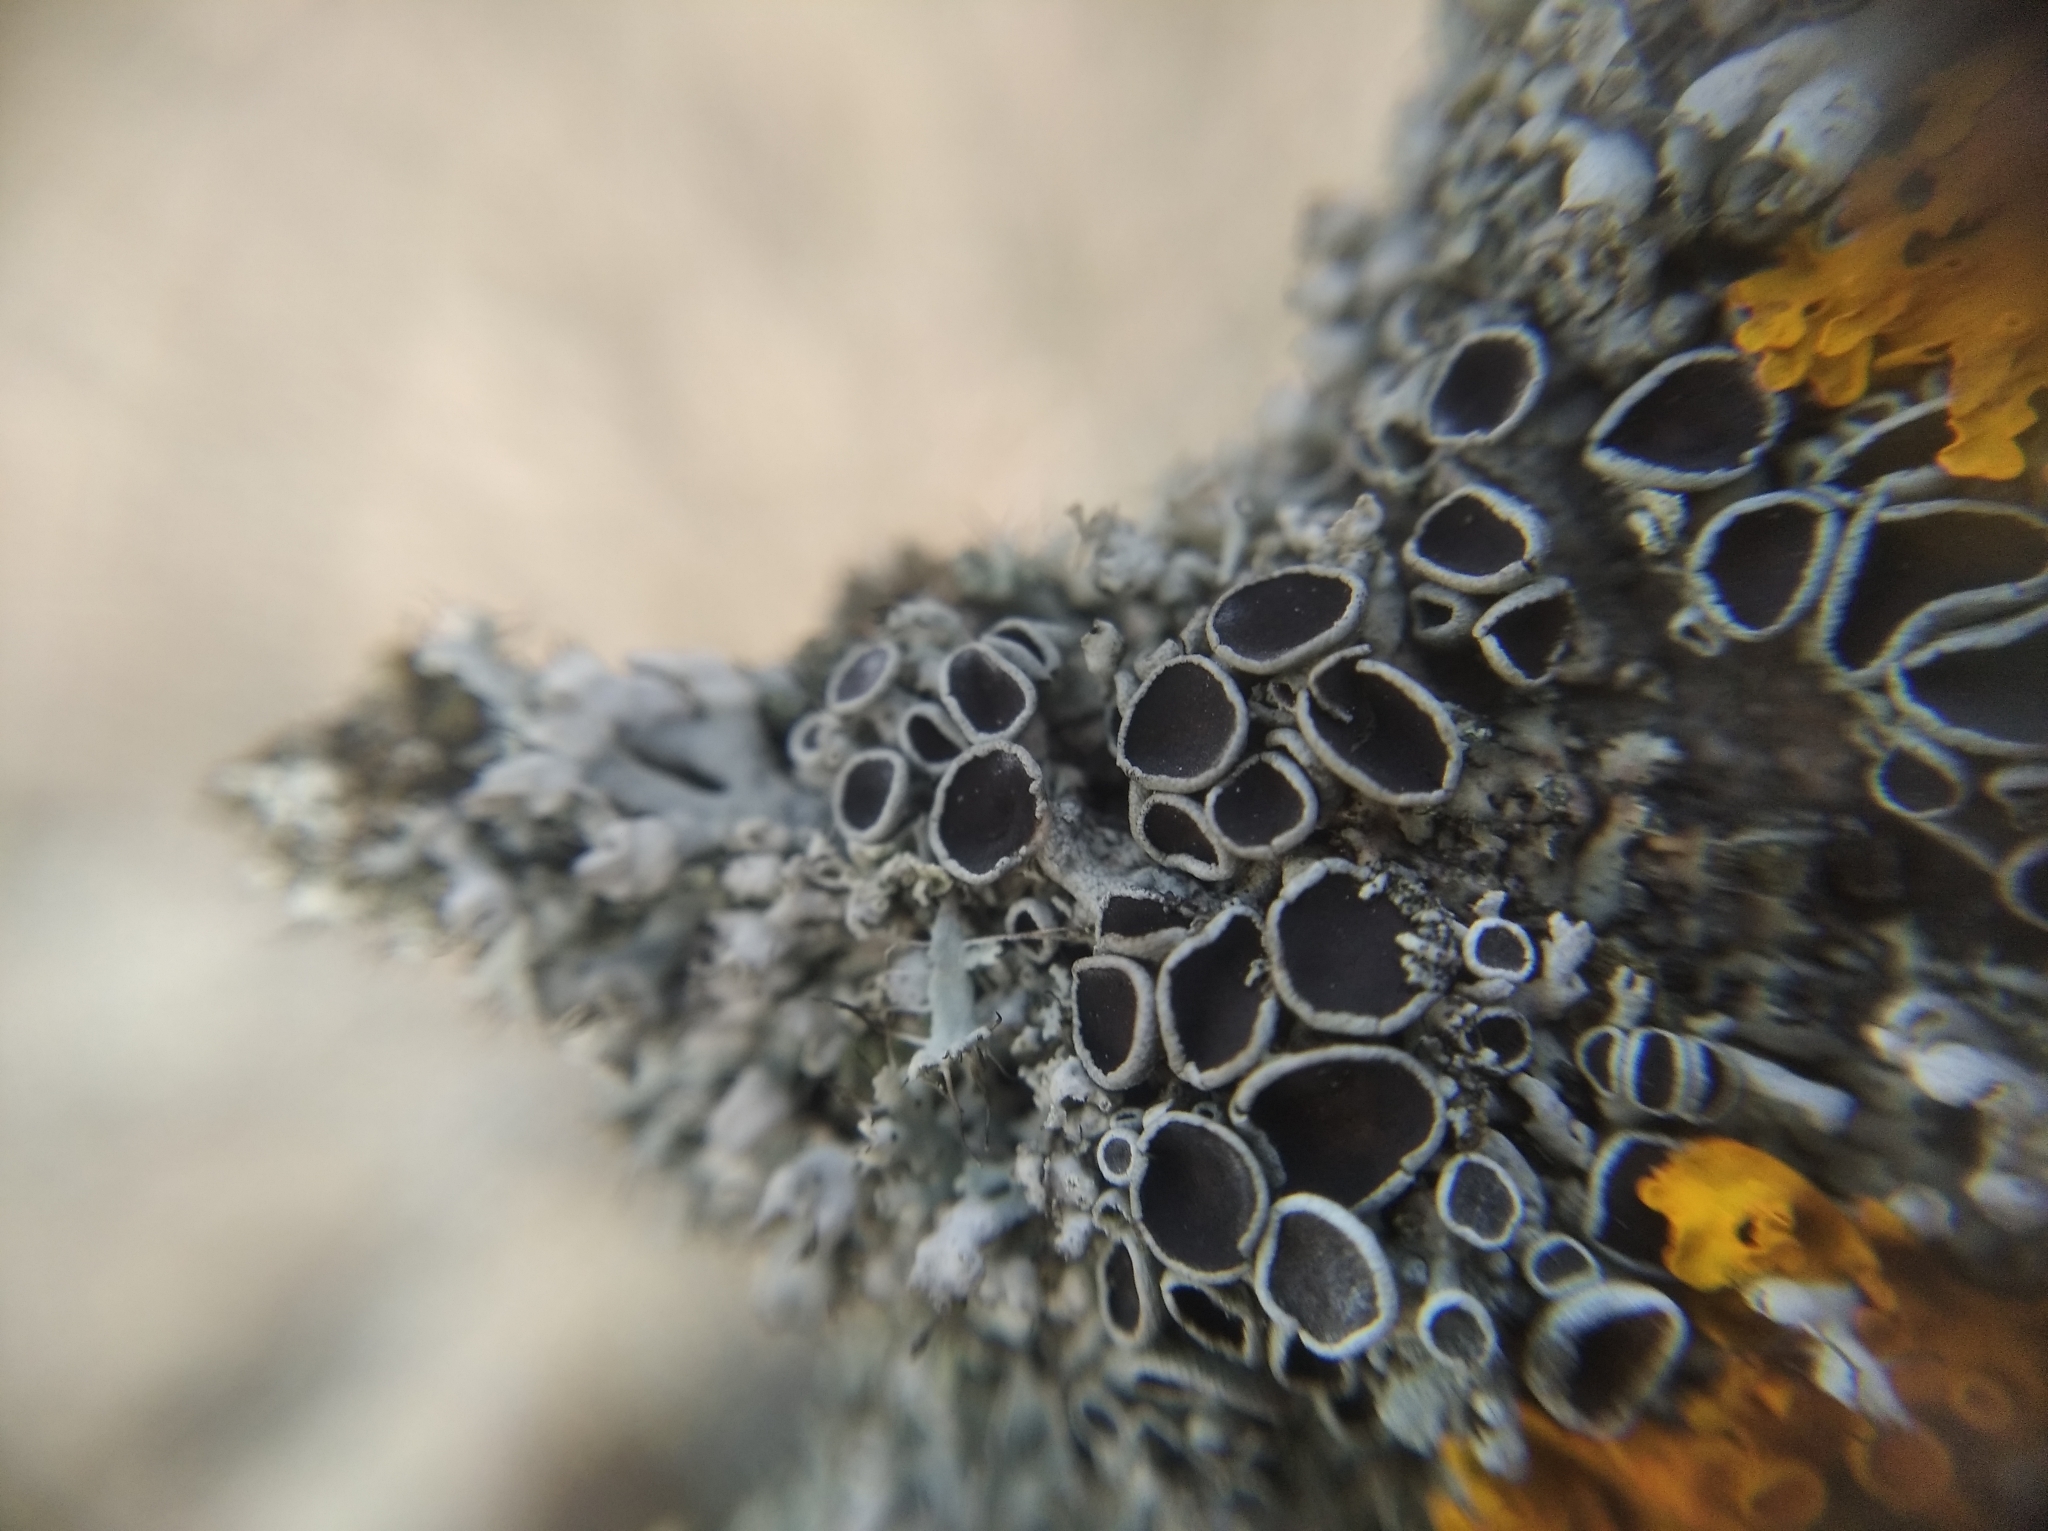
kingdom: Fungi
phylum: Ascomycota
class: Lecanoromycetes
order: Caliciales
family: Physciaceae
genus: Physcia
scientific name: Physcia stellaris
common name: Star rosette lichen
